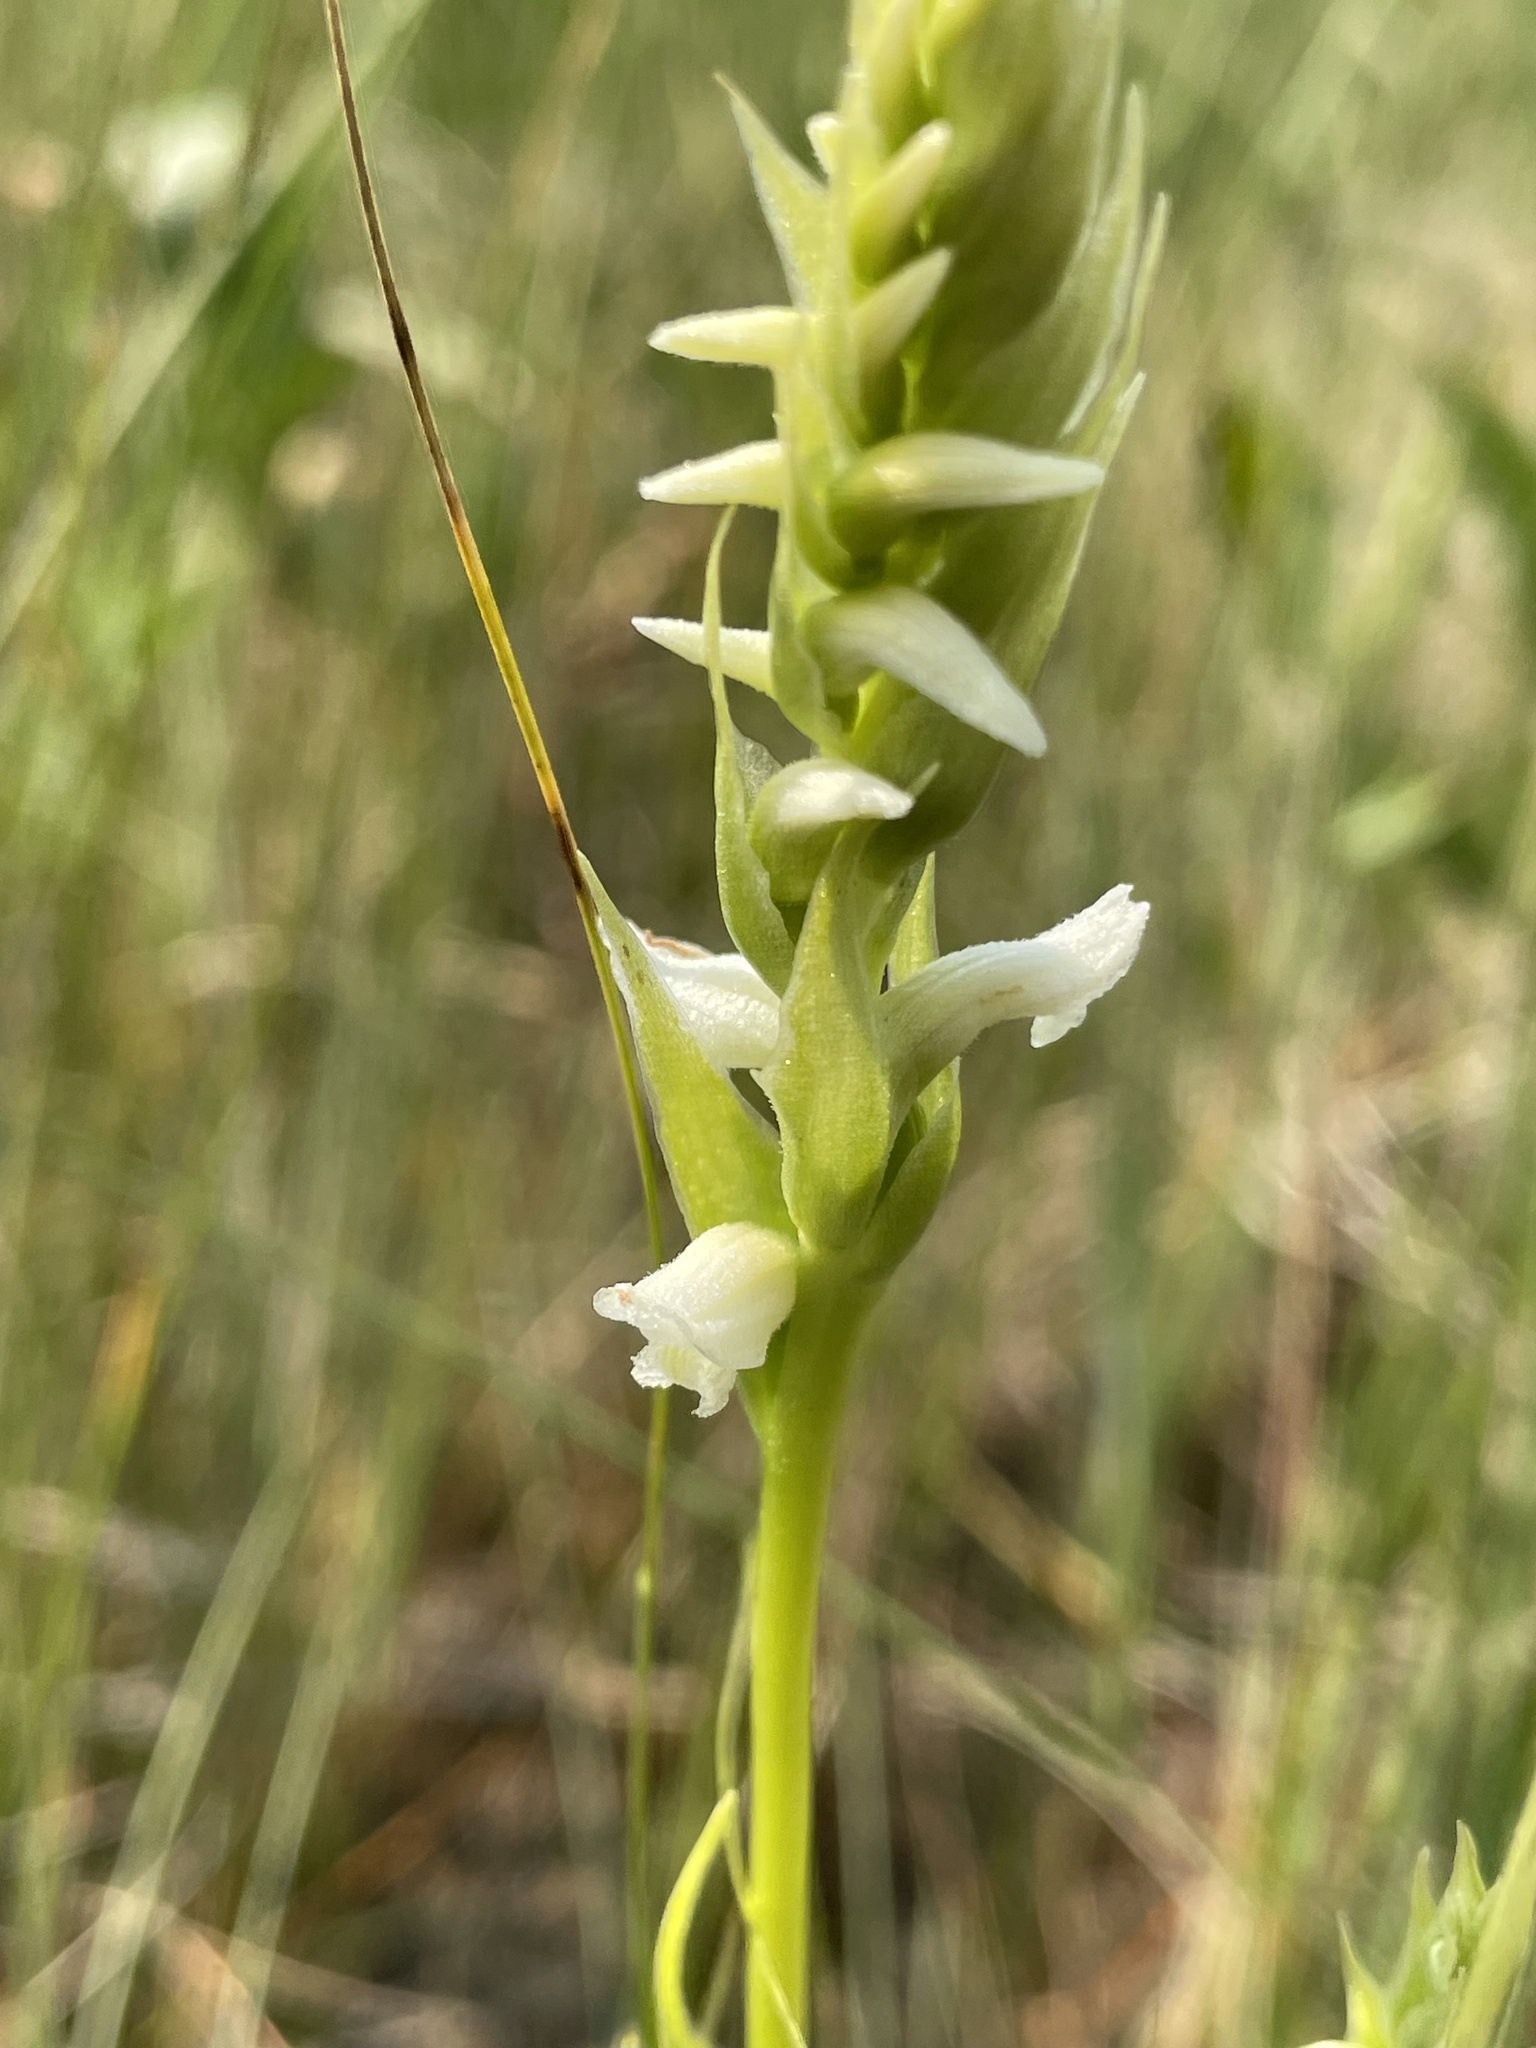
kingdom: Plantae
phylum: Tracheophyta
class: Liliopsida
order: Asparagales
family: Orchidaceae
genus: Spiranthes
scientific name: Spiranthes romanzoffiana
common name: Irish lady's-tresses
